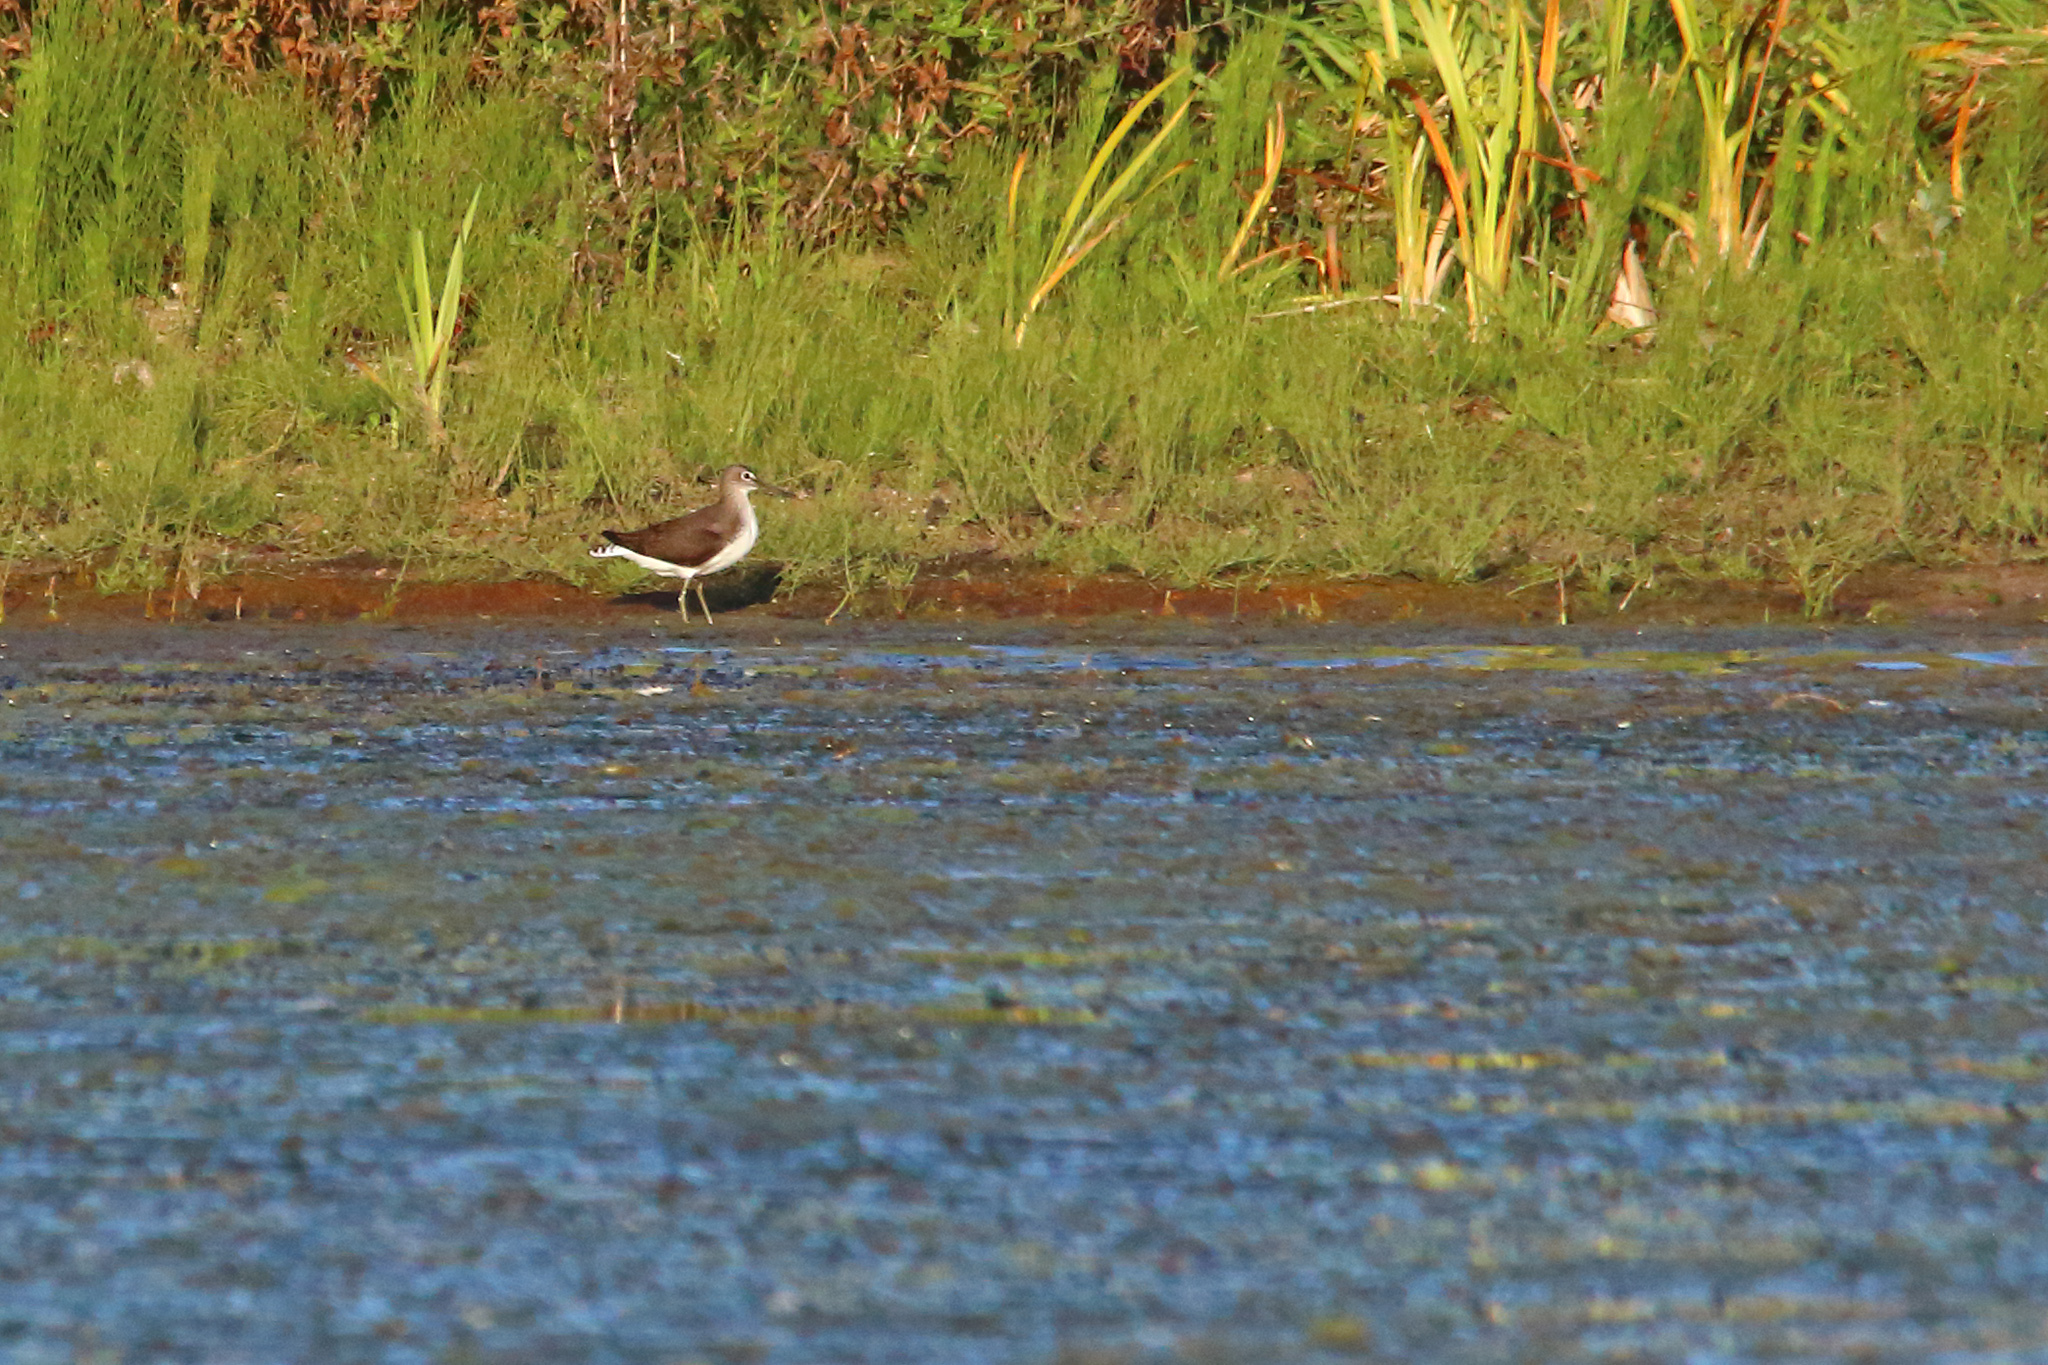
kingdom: Animalia
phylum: Chordata
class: Aves
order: Charadriiformes
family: Scolopacidae
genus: Tringa
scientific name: Tringa ochropus
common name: Green sandpiper
